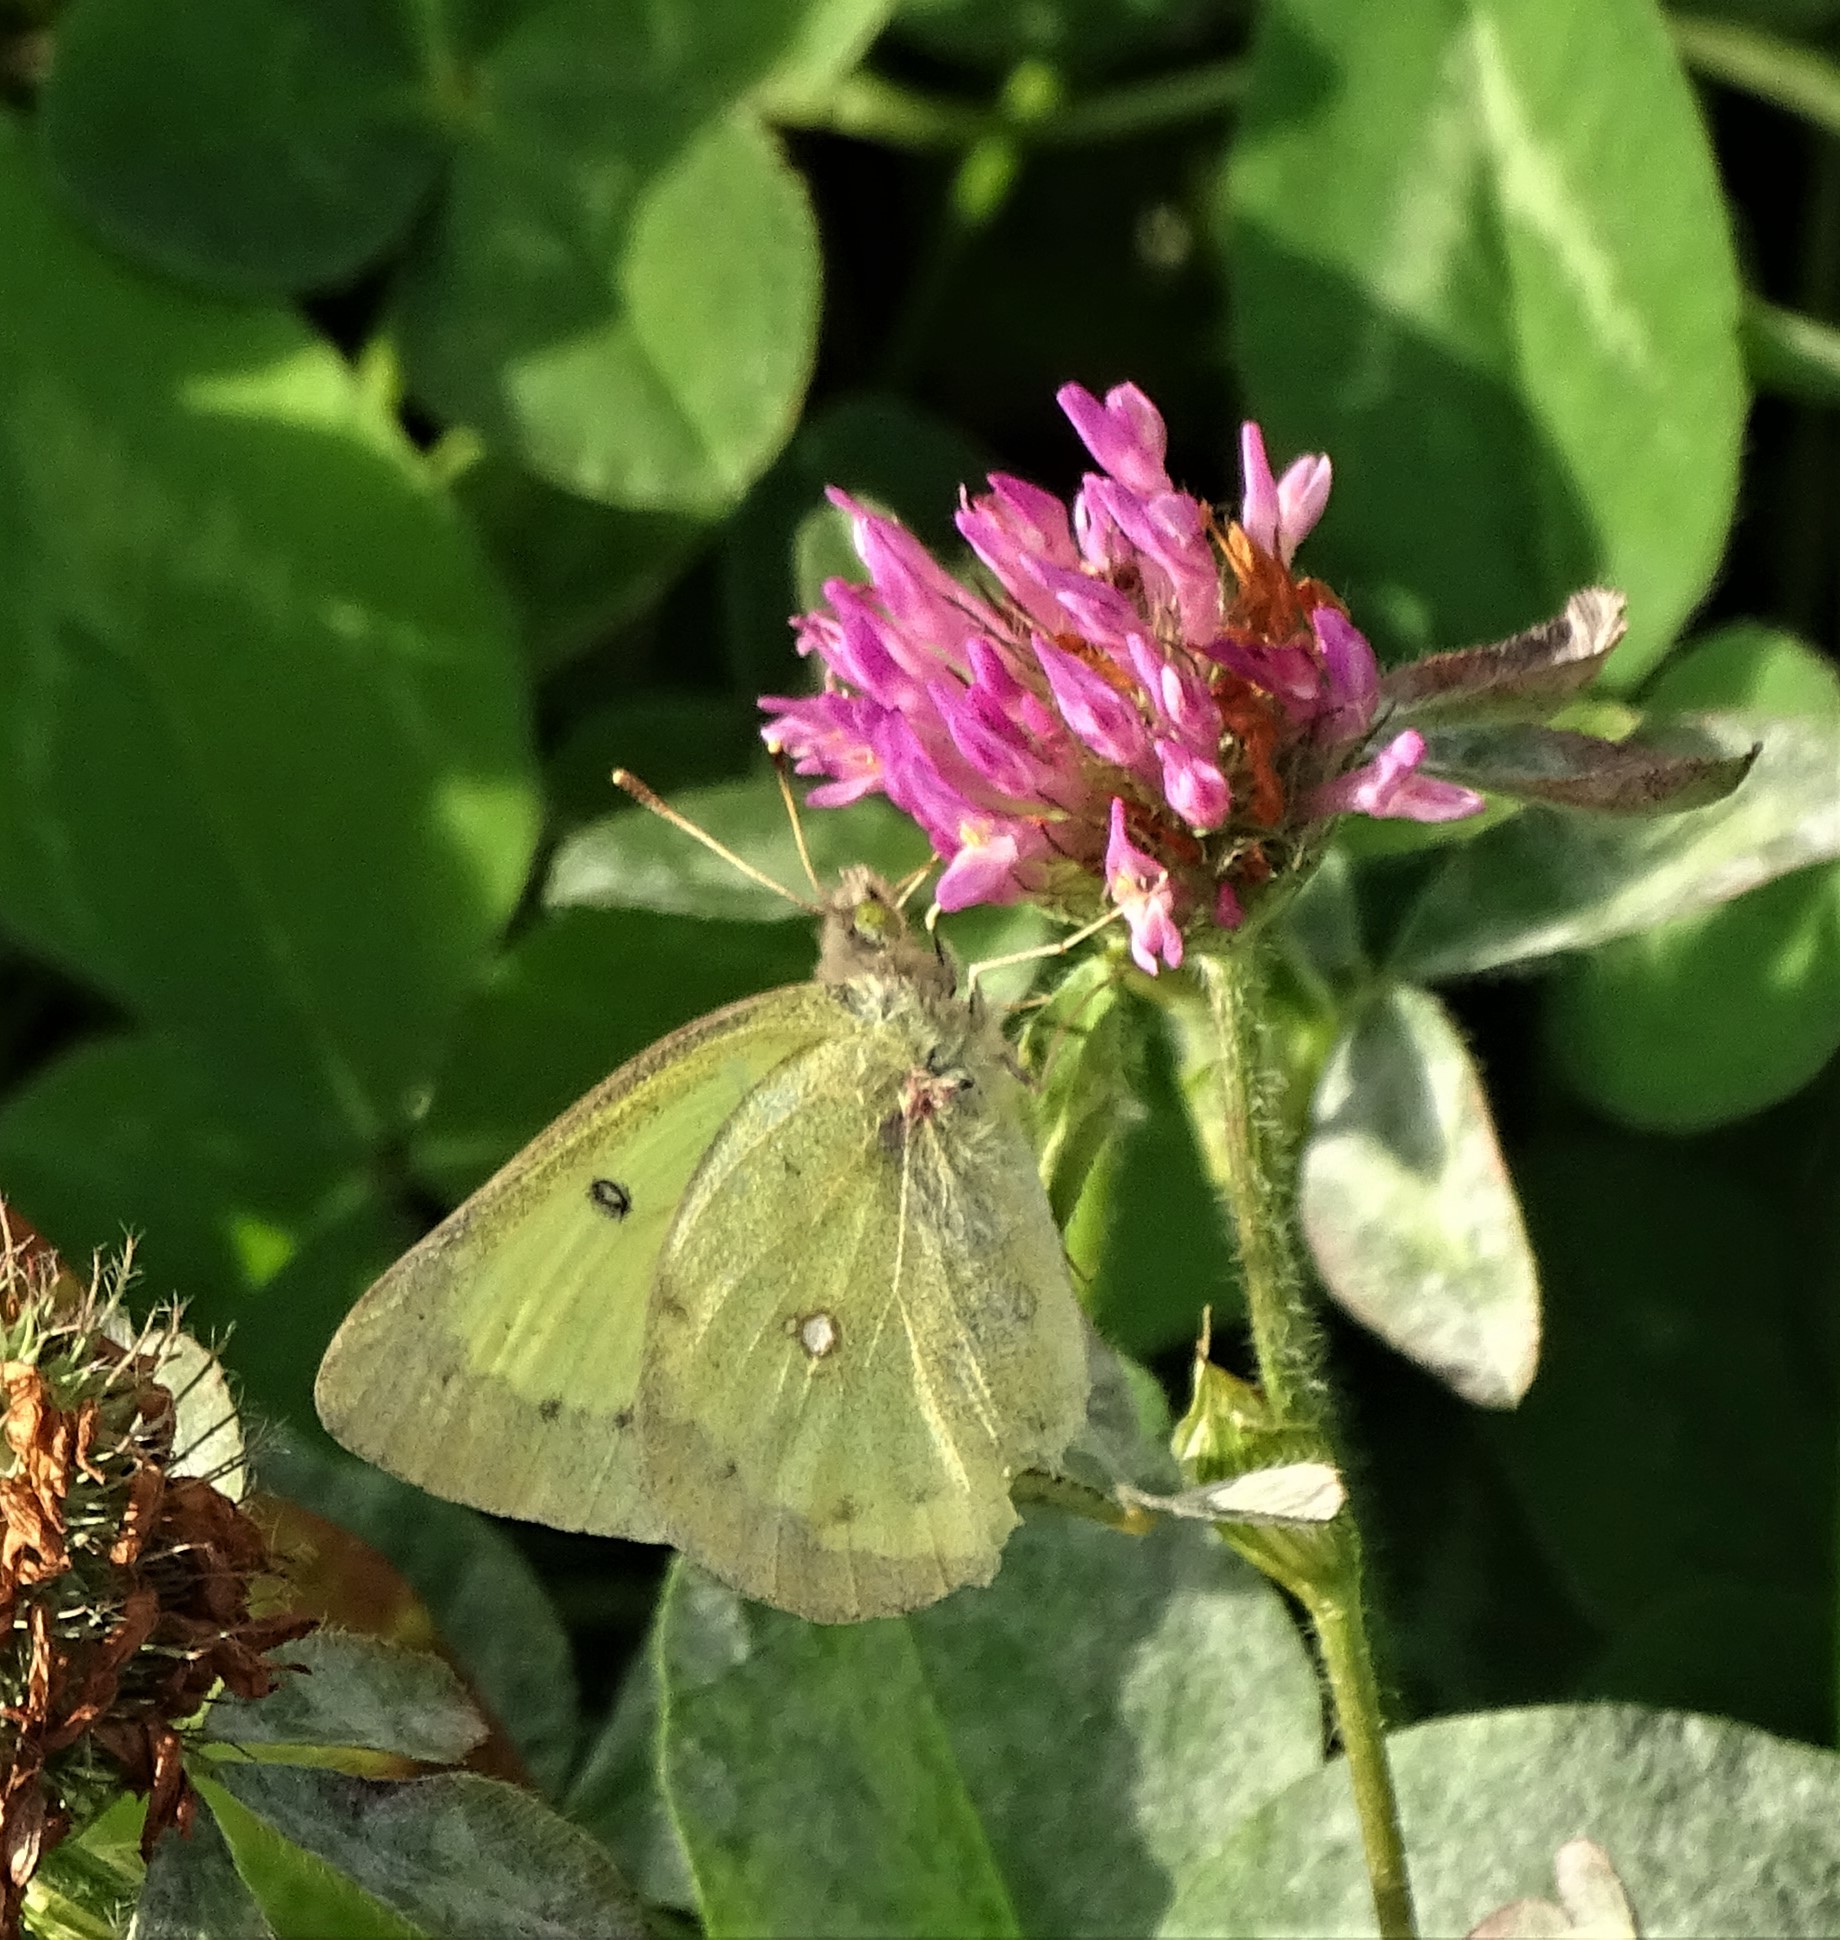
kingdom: Animalia
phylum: Arthropoda
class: Insecta
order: Lepidoptera
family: Pieridae
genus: Colias
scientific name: Colias philodice
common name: Clouded sulphur
